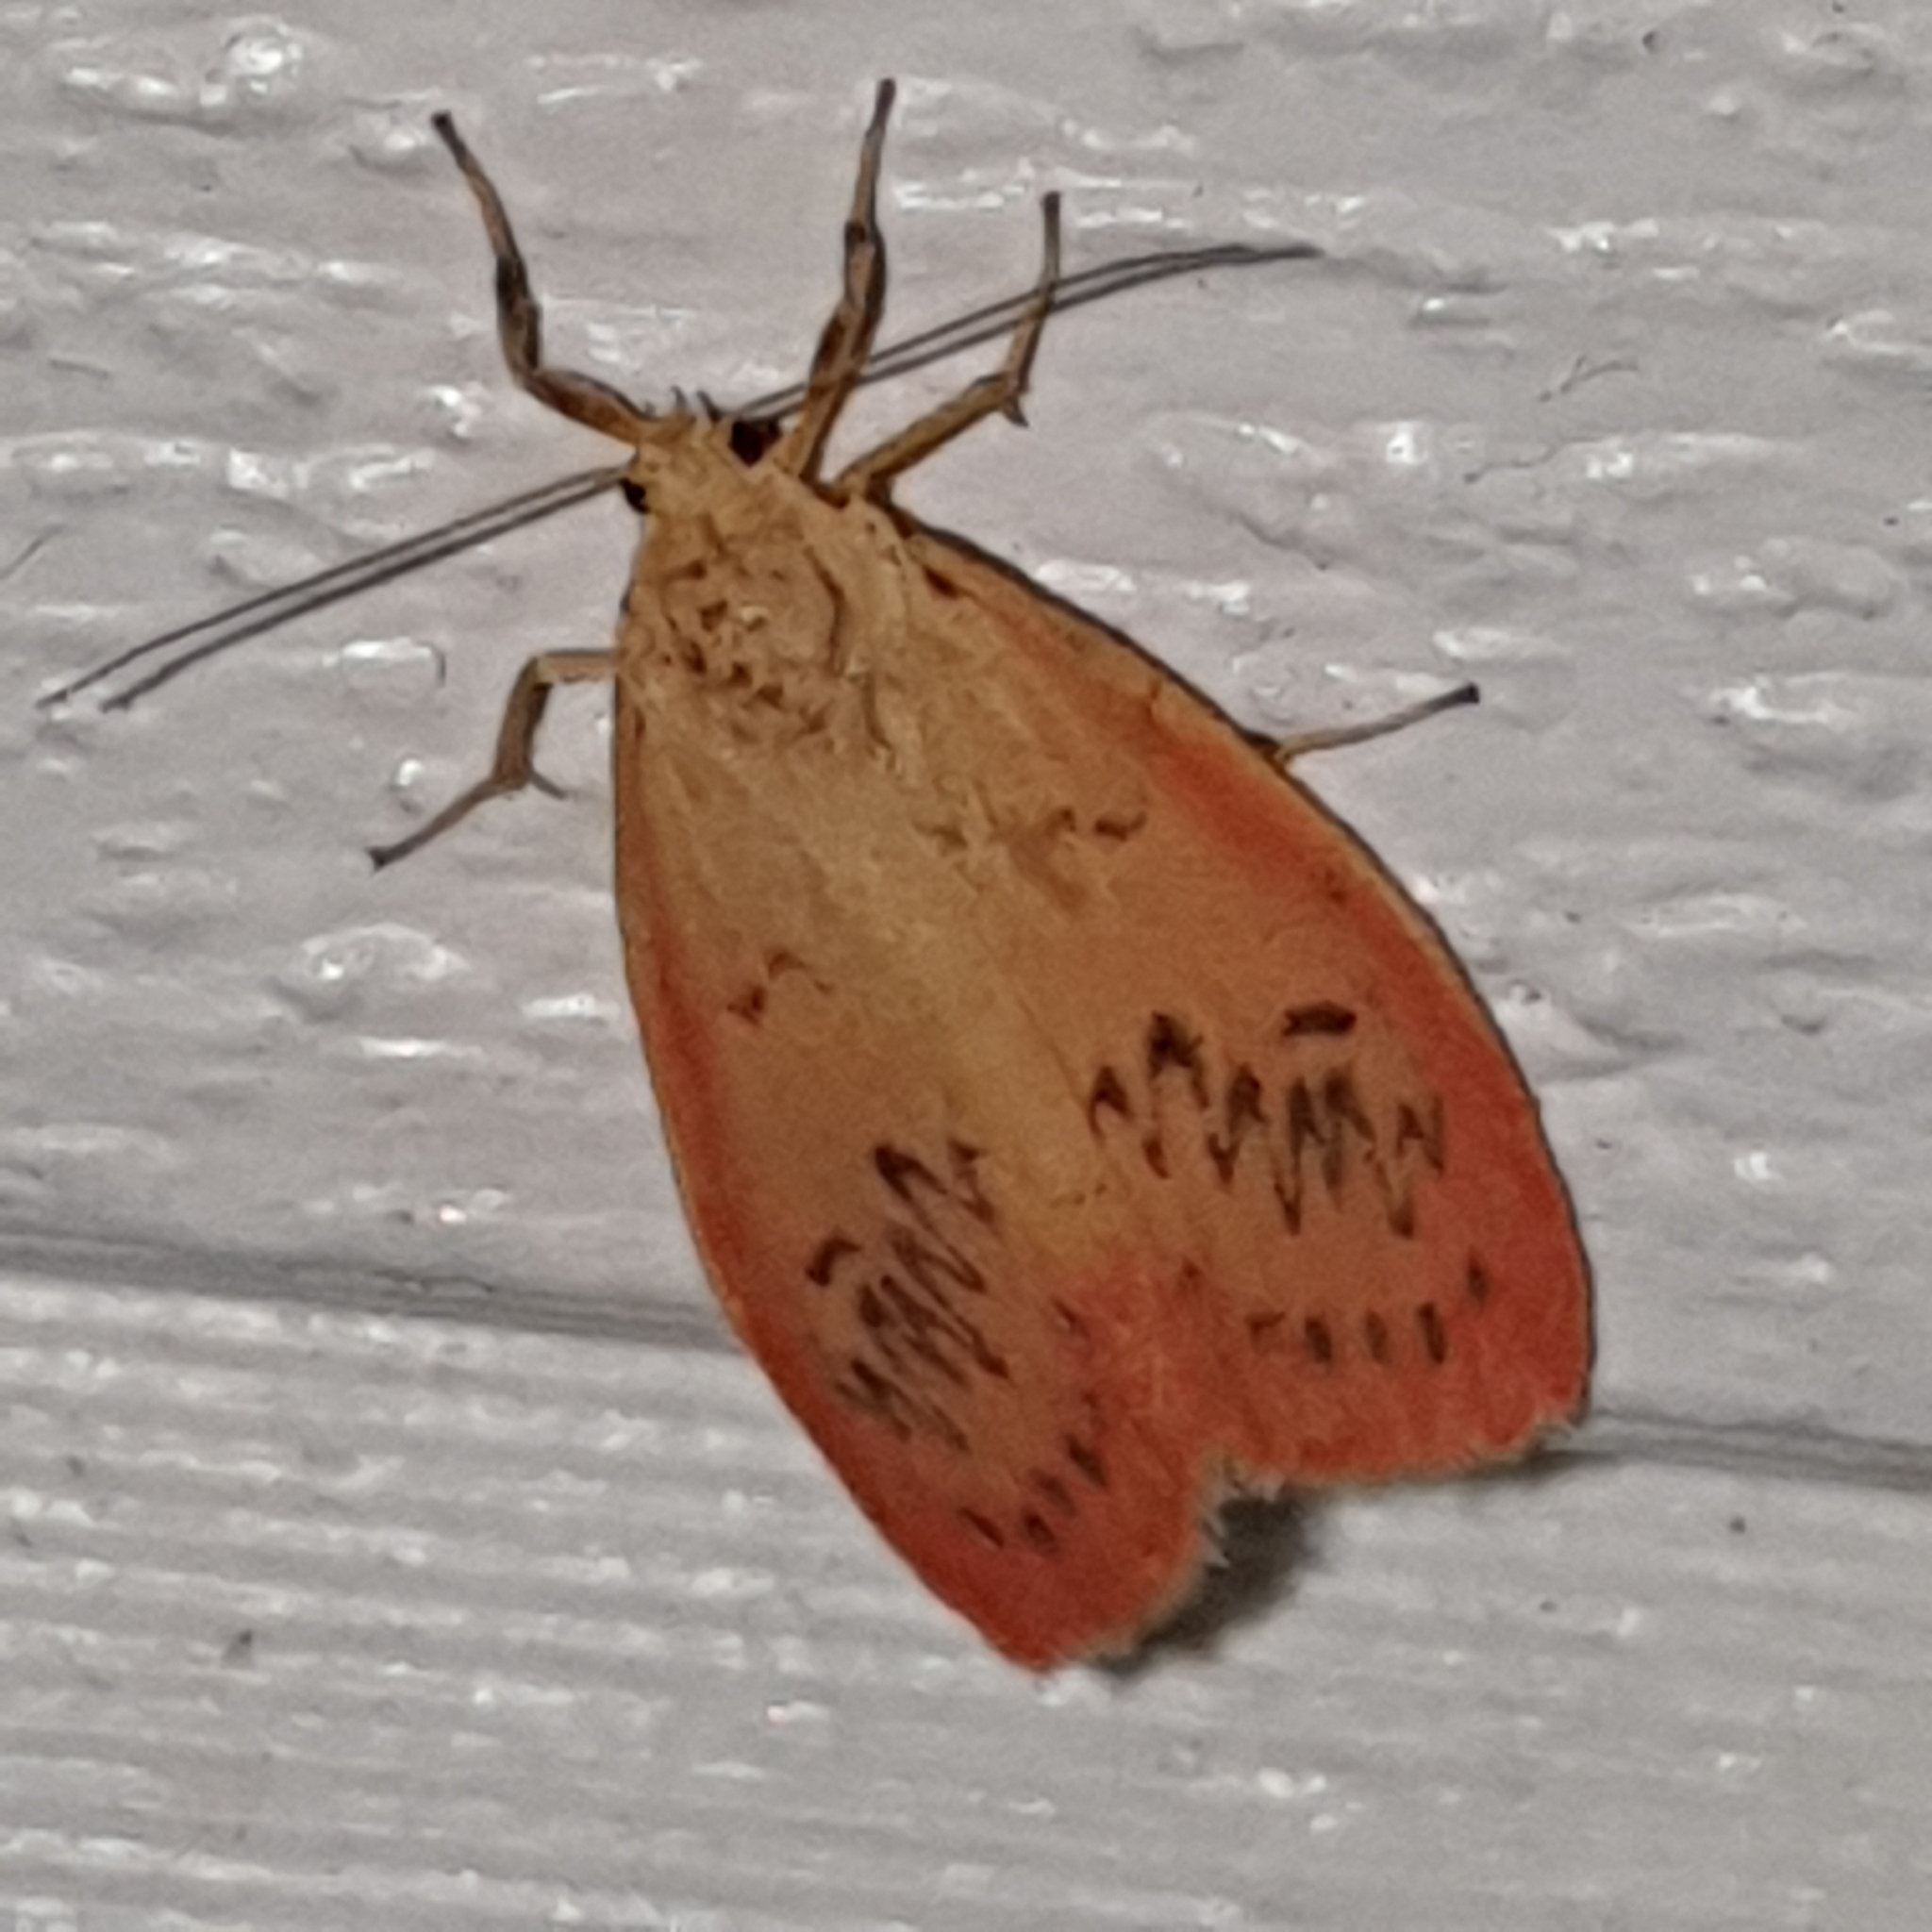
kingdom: Animalia
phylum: Arthropoda
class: Insecta
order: Lepidoptera
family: Erebidae
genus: Miltochrista
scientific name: Miltochrista miniata
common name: Rosy footman
